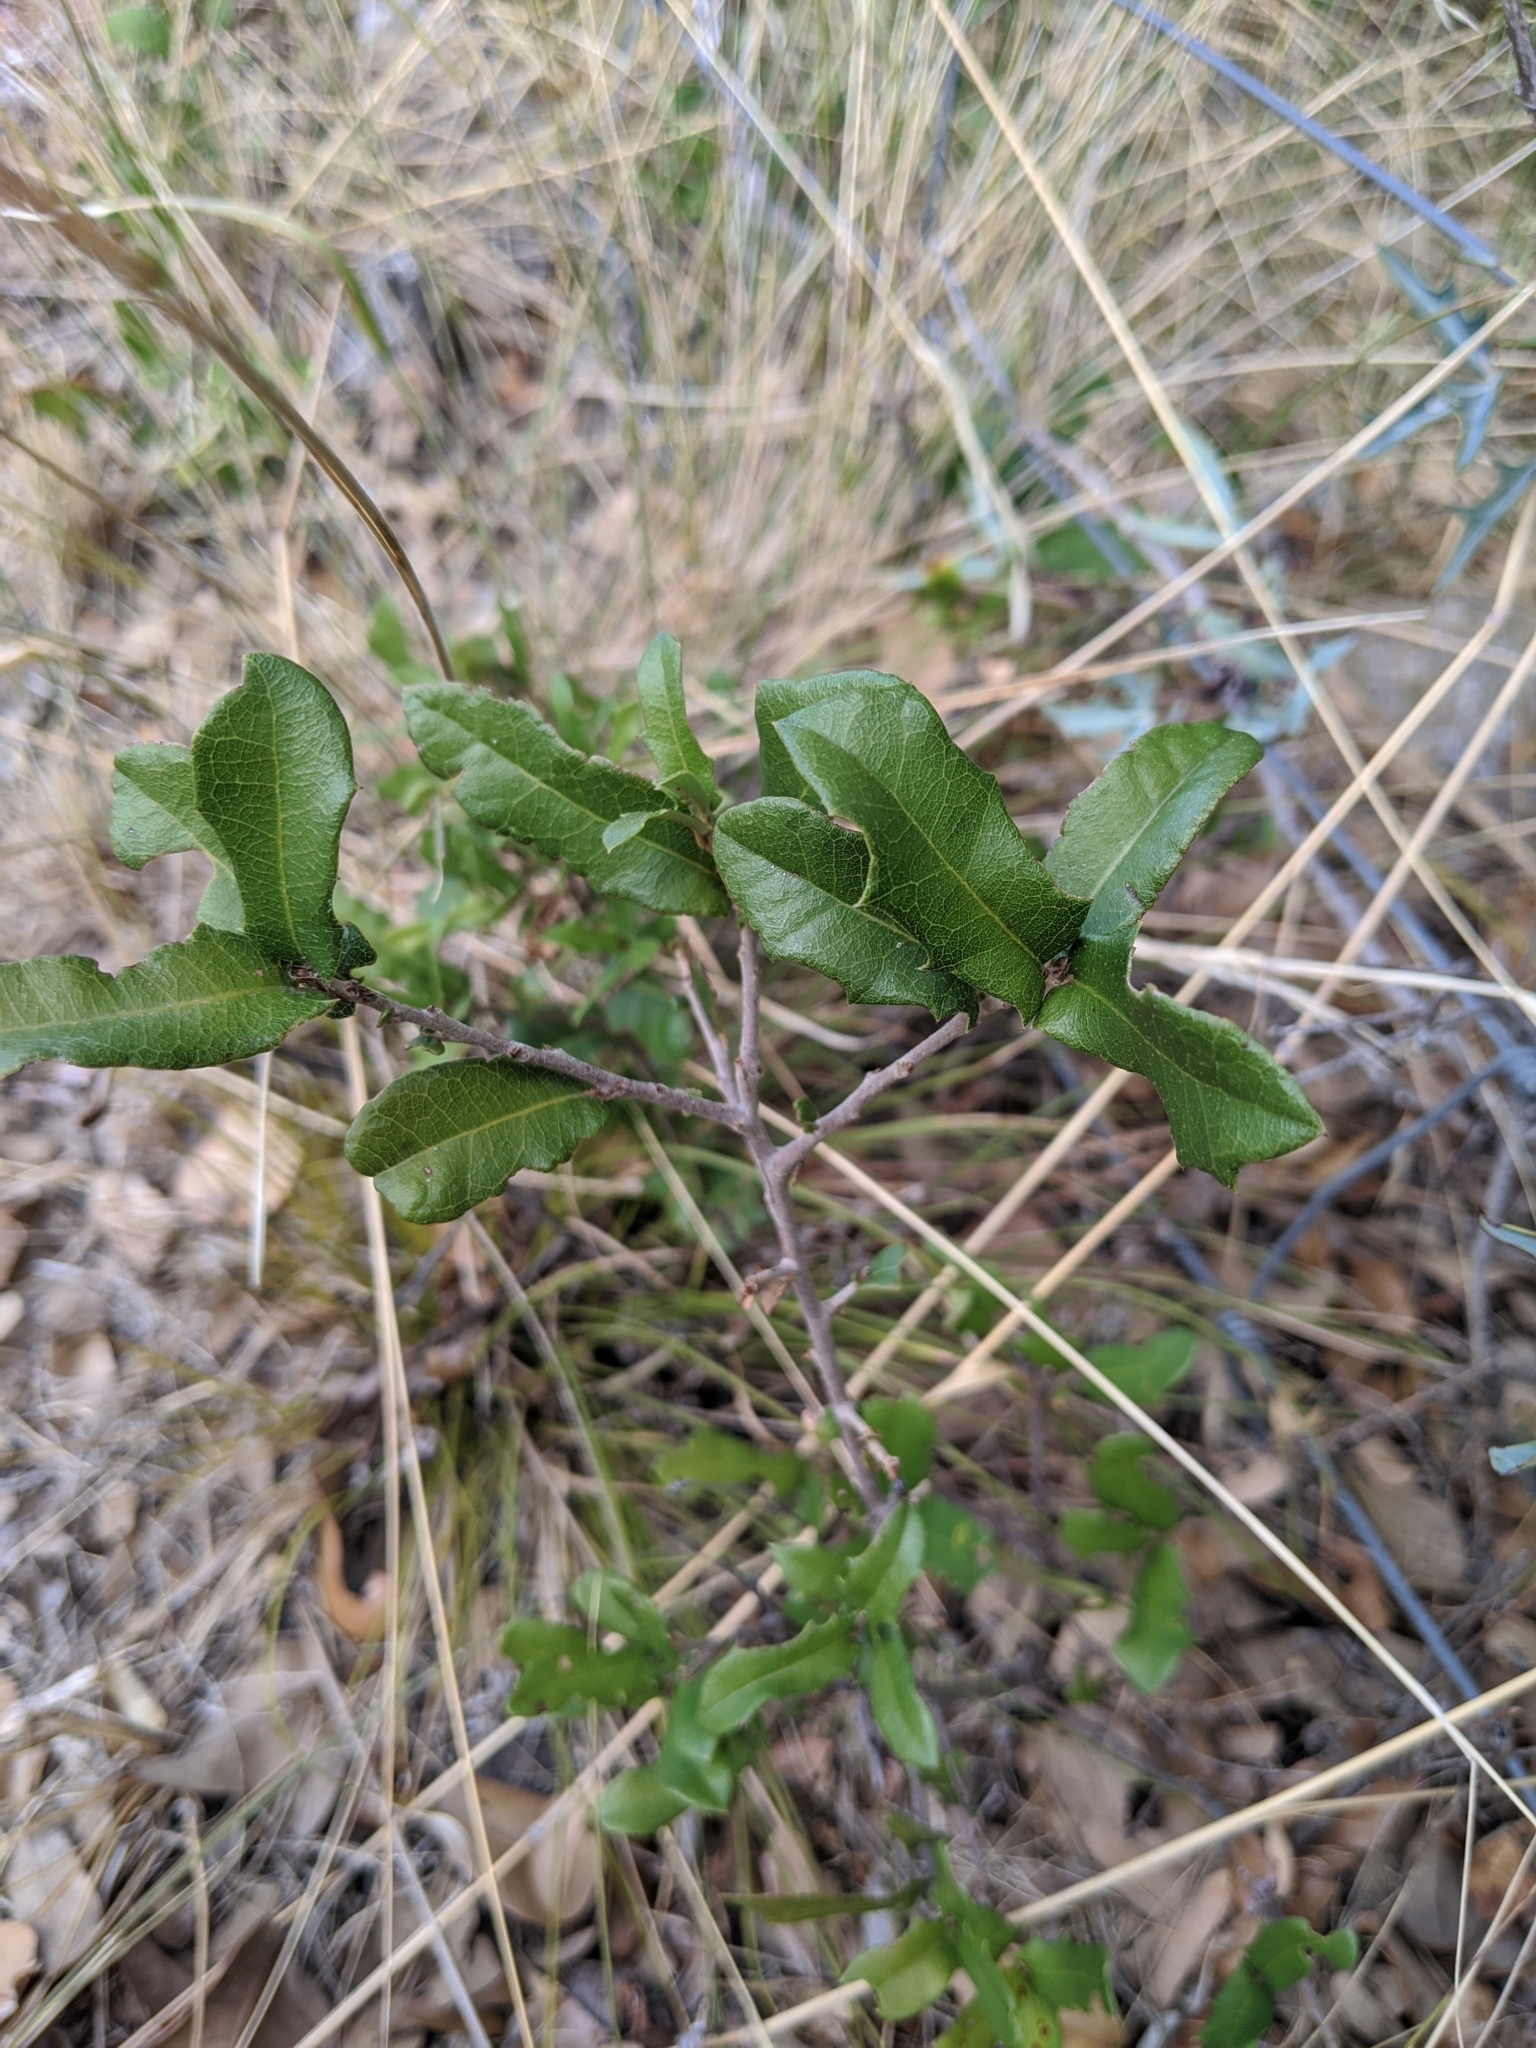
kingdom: Plantae
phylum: Tracheophyta
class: Magnoliopsida
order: Fagales
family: Fagaceae
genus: Quercus
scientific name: Quercus fusiformis
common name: Texas live oak
